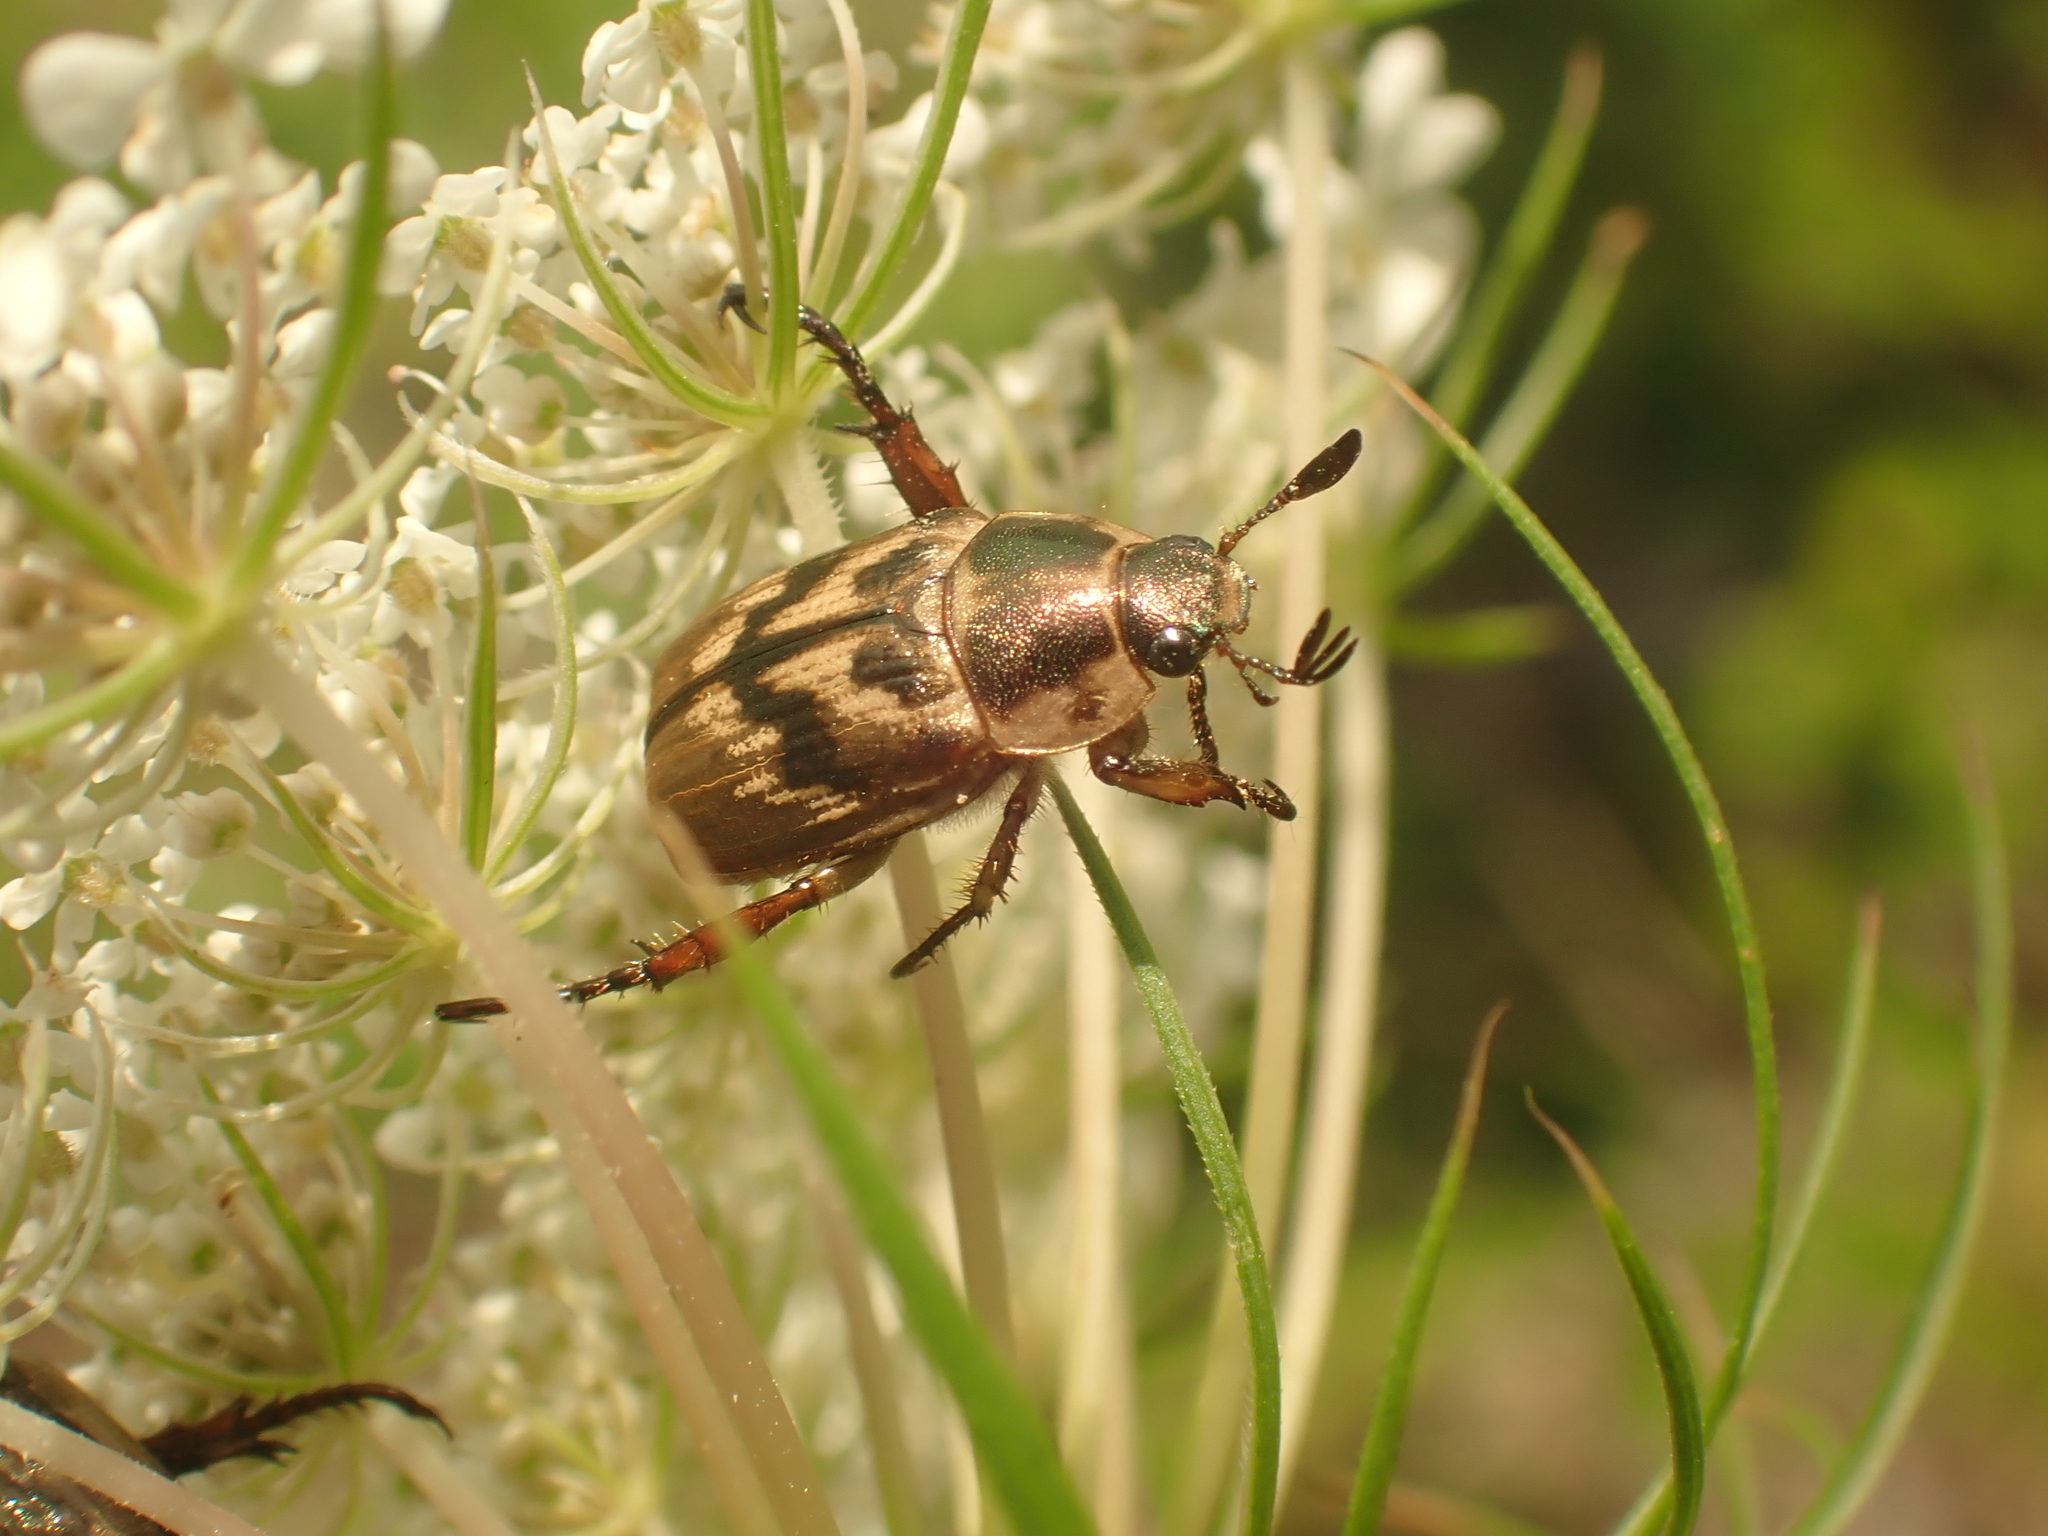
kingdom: Animalia
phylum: Arthropoda
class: Insecta
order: Coleoptera
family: Scarabaeidae
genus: Exomala
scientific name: Exomala orientalis
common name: Oriental beetle
